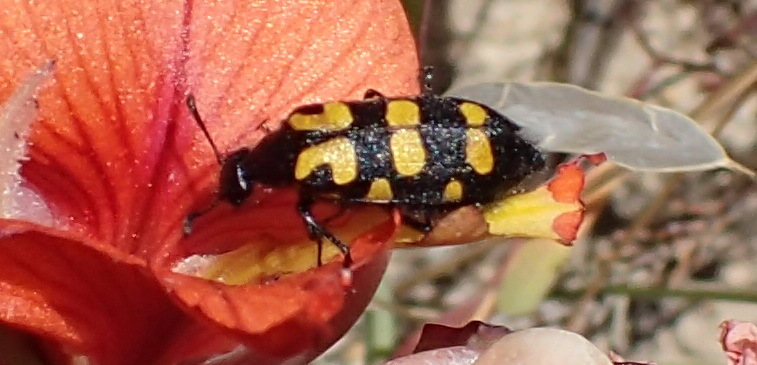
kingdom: Animalia
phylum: Arthropoda
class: Insecta
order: Coleoptera
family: Meloidae
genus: Ceroctis
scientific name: Ceroctis capensis
